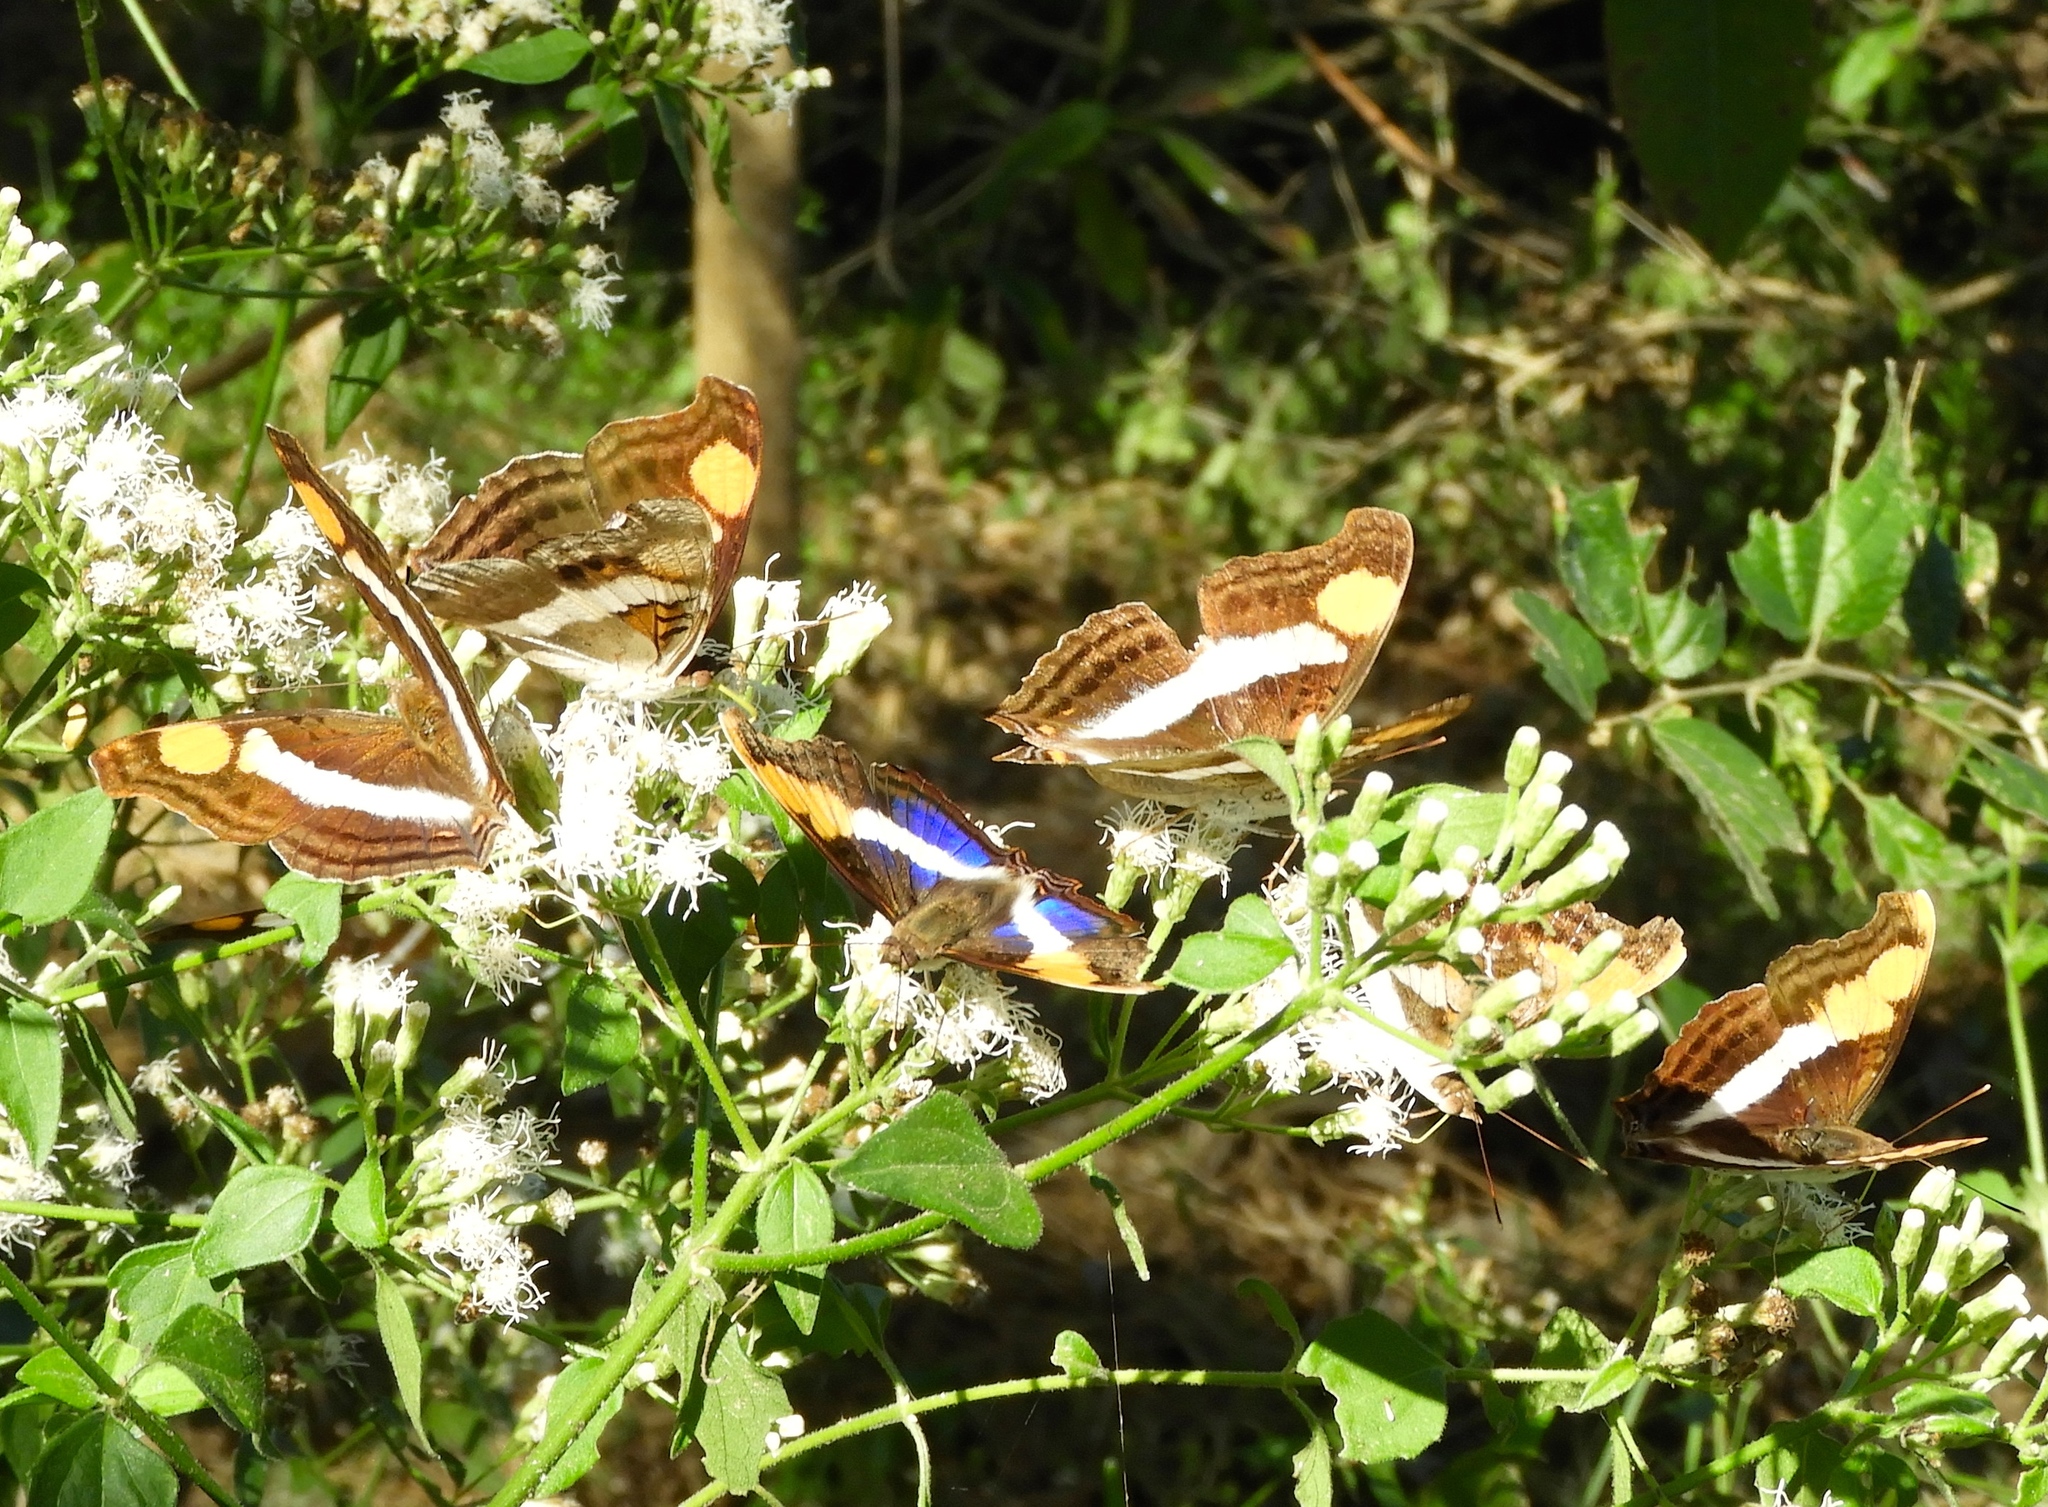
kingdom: Animalia
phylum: Arthropoda
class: Insecta
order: Lepidoptera
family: Nymphalidae
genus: Doxocopa
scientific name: Doxocopa laure
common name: Silver emperor
